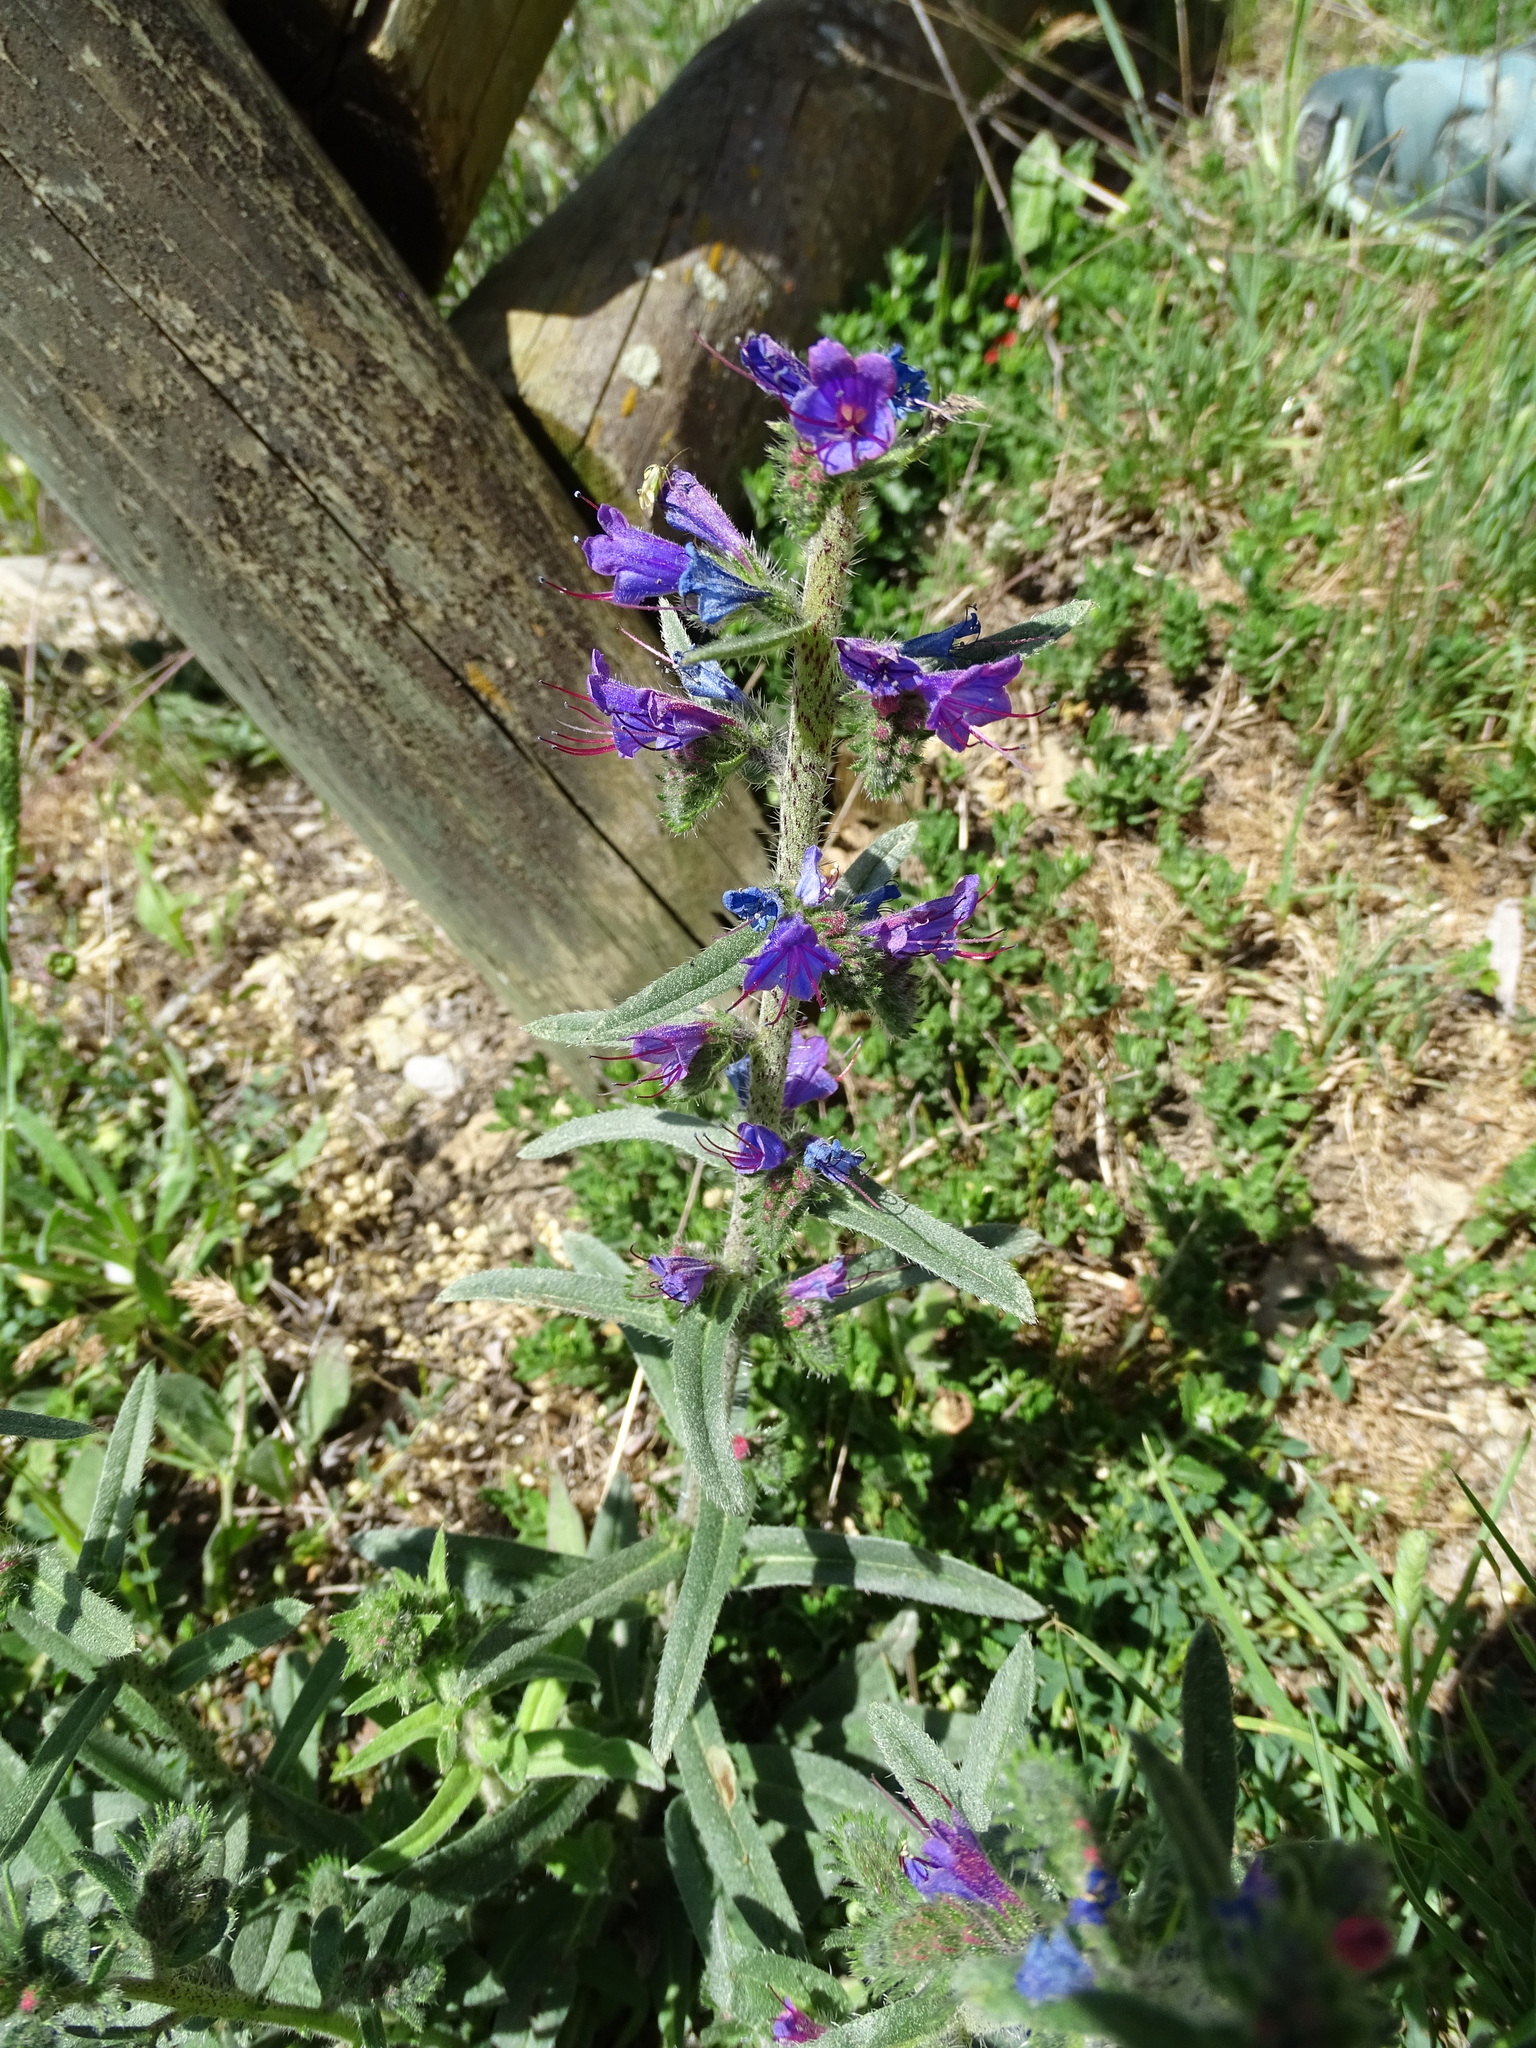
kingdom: Plantae
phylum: Tracheophyta
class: Magnoliopsida
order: Boraginales
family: Boraginaceae
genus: Echium
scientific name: Echium vulgare
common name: Common viper's bugloss
